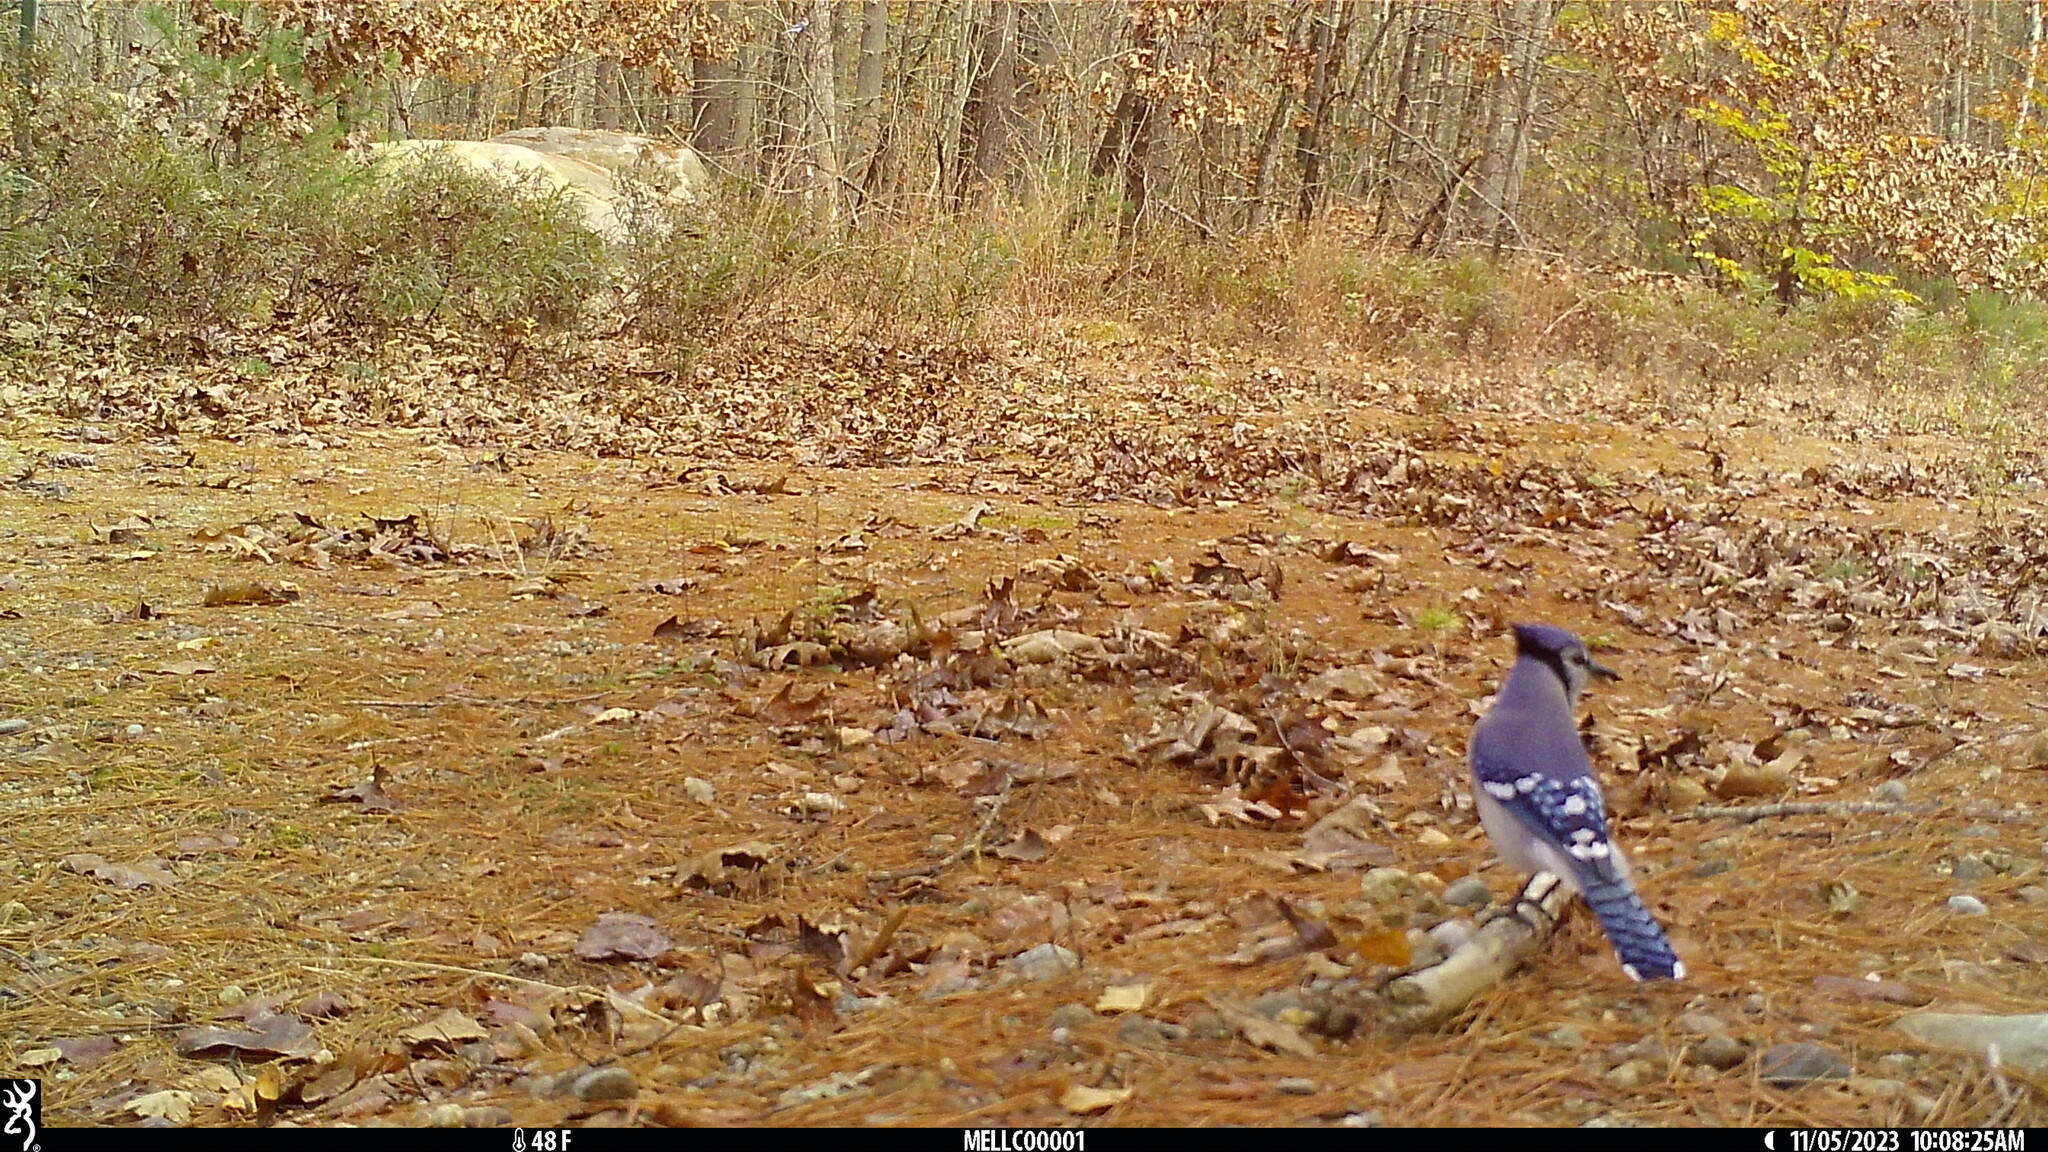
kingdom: Animalia
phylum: Chordata
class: Aves
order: Passeriformes
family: Corvidae
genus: Cyanocitta
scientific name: Cyanocitta cristata
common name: Blue jay
